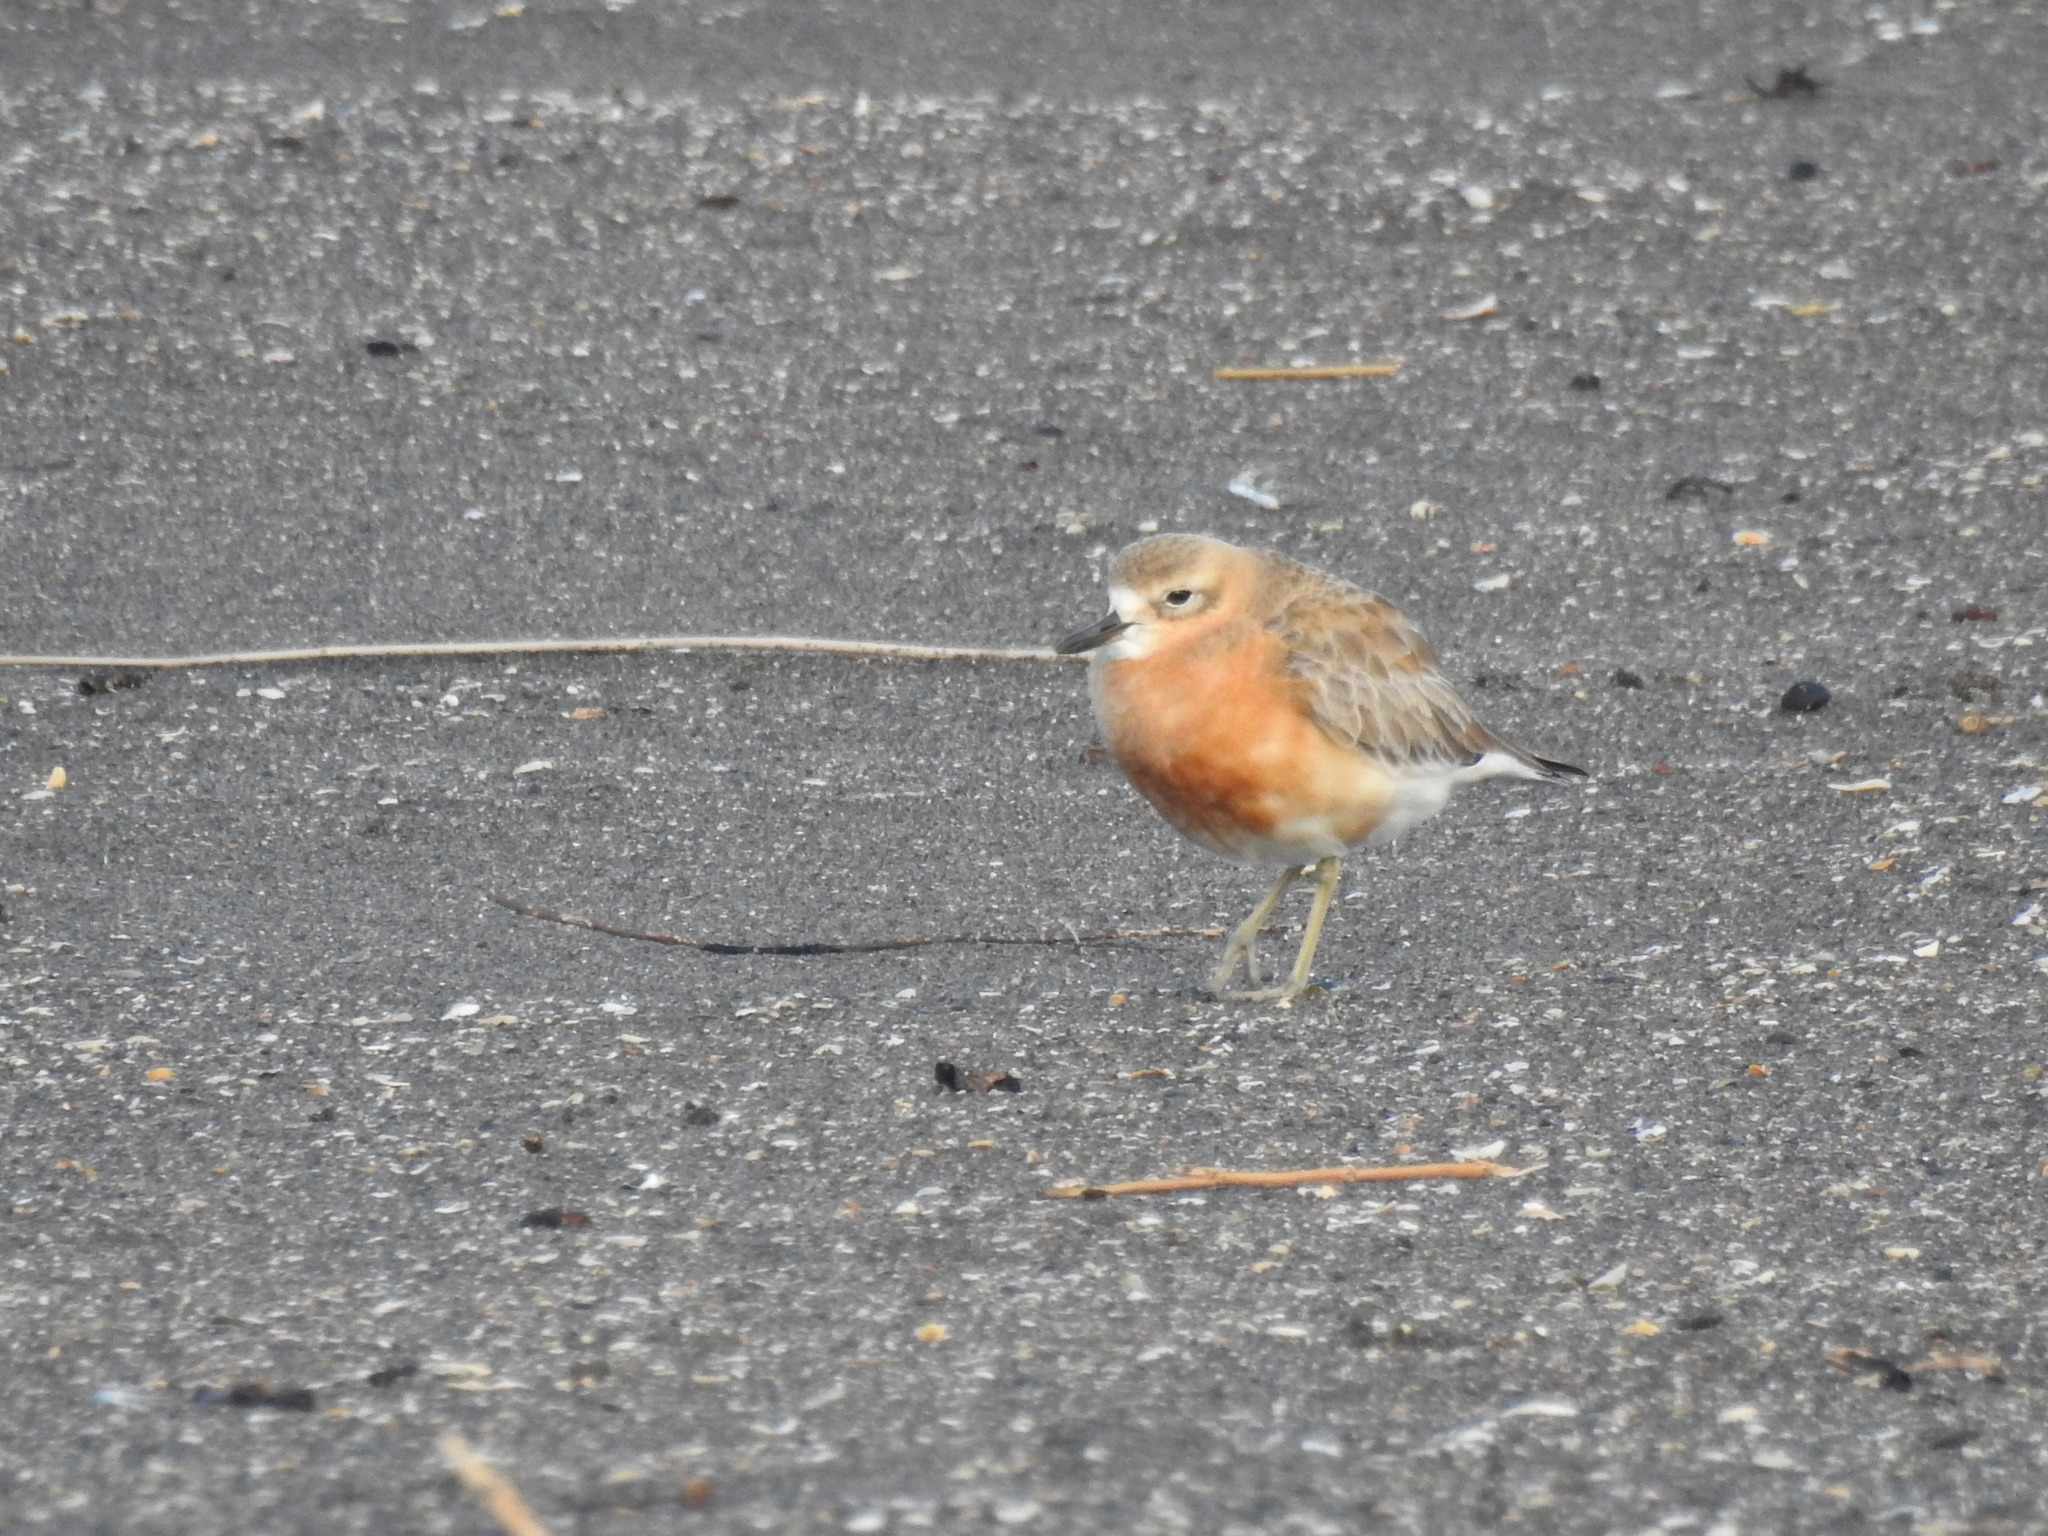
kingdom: Animalia
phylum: Chordata
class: Aves
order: Charadriiformes
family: Charadriidae
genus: Anarhynchus
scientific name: Anarhynchus
